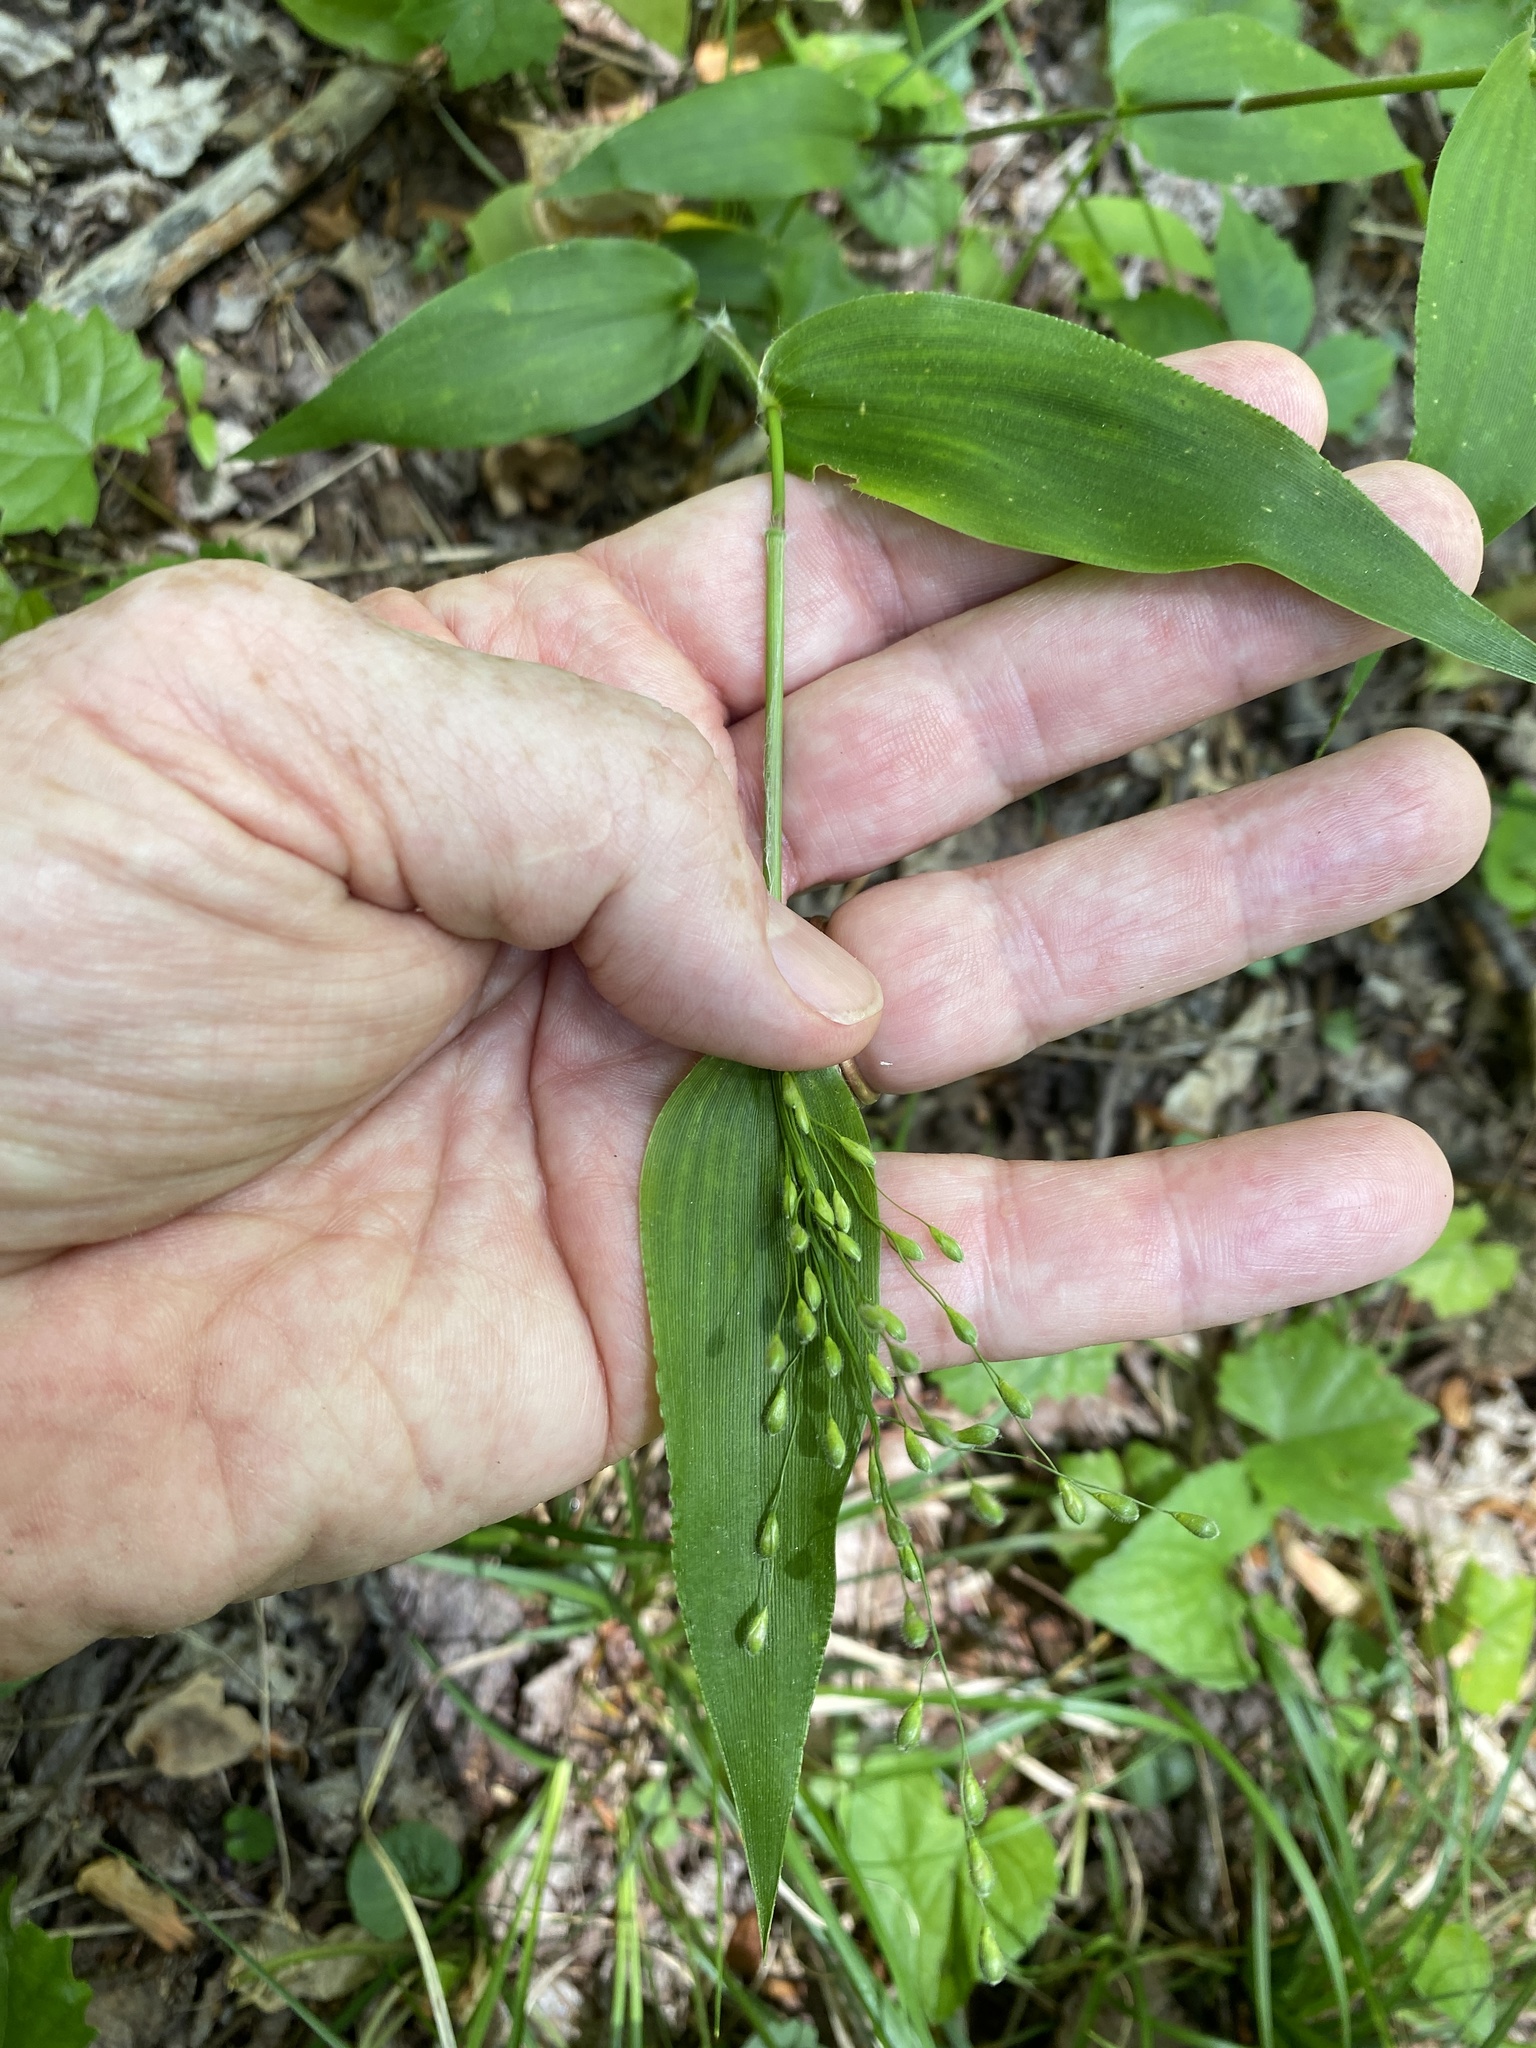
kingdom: Plantae
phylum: Tracheophyta
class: Liliopsida
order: Poales
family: Poaceae
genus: Dichanthelium
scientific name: Dichanthelium boscii
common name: Bosc's panic grass
